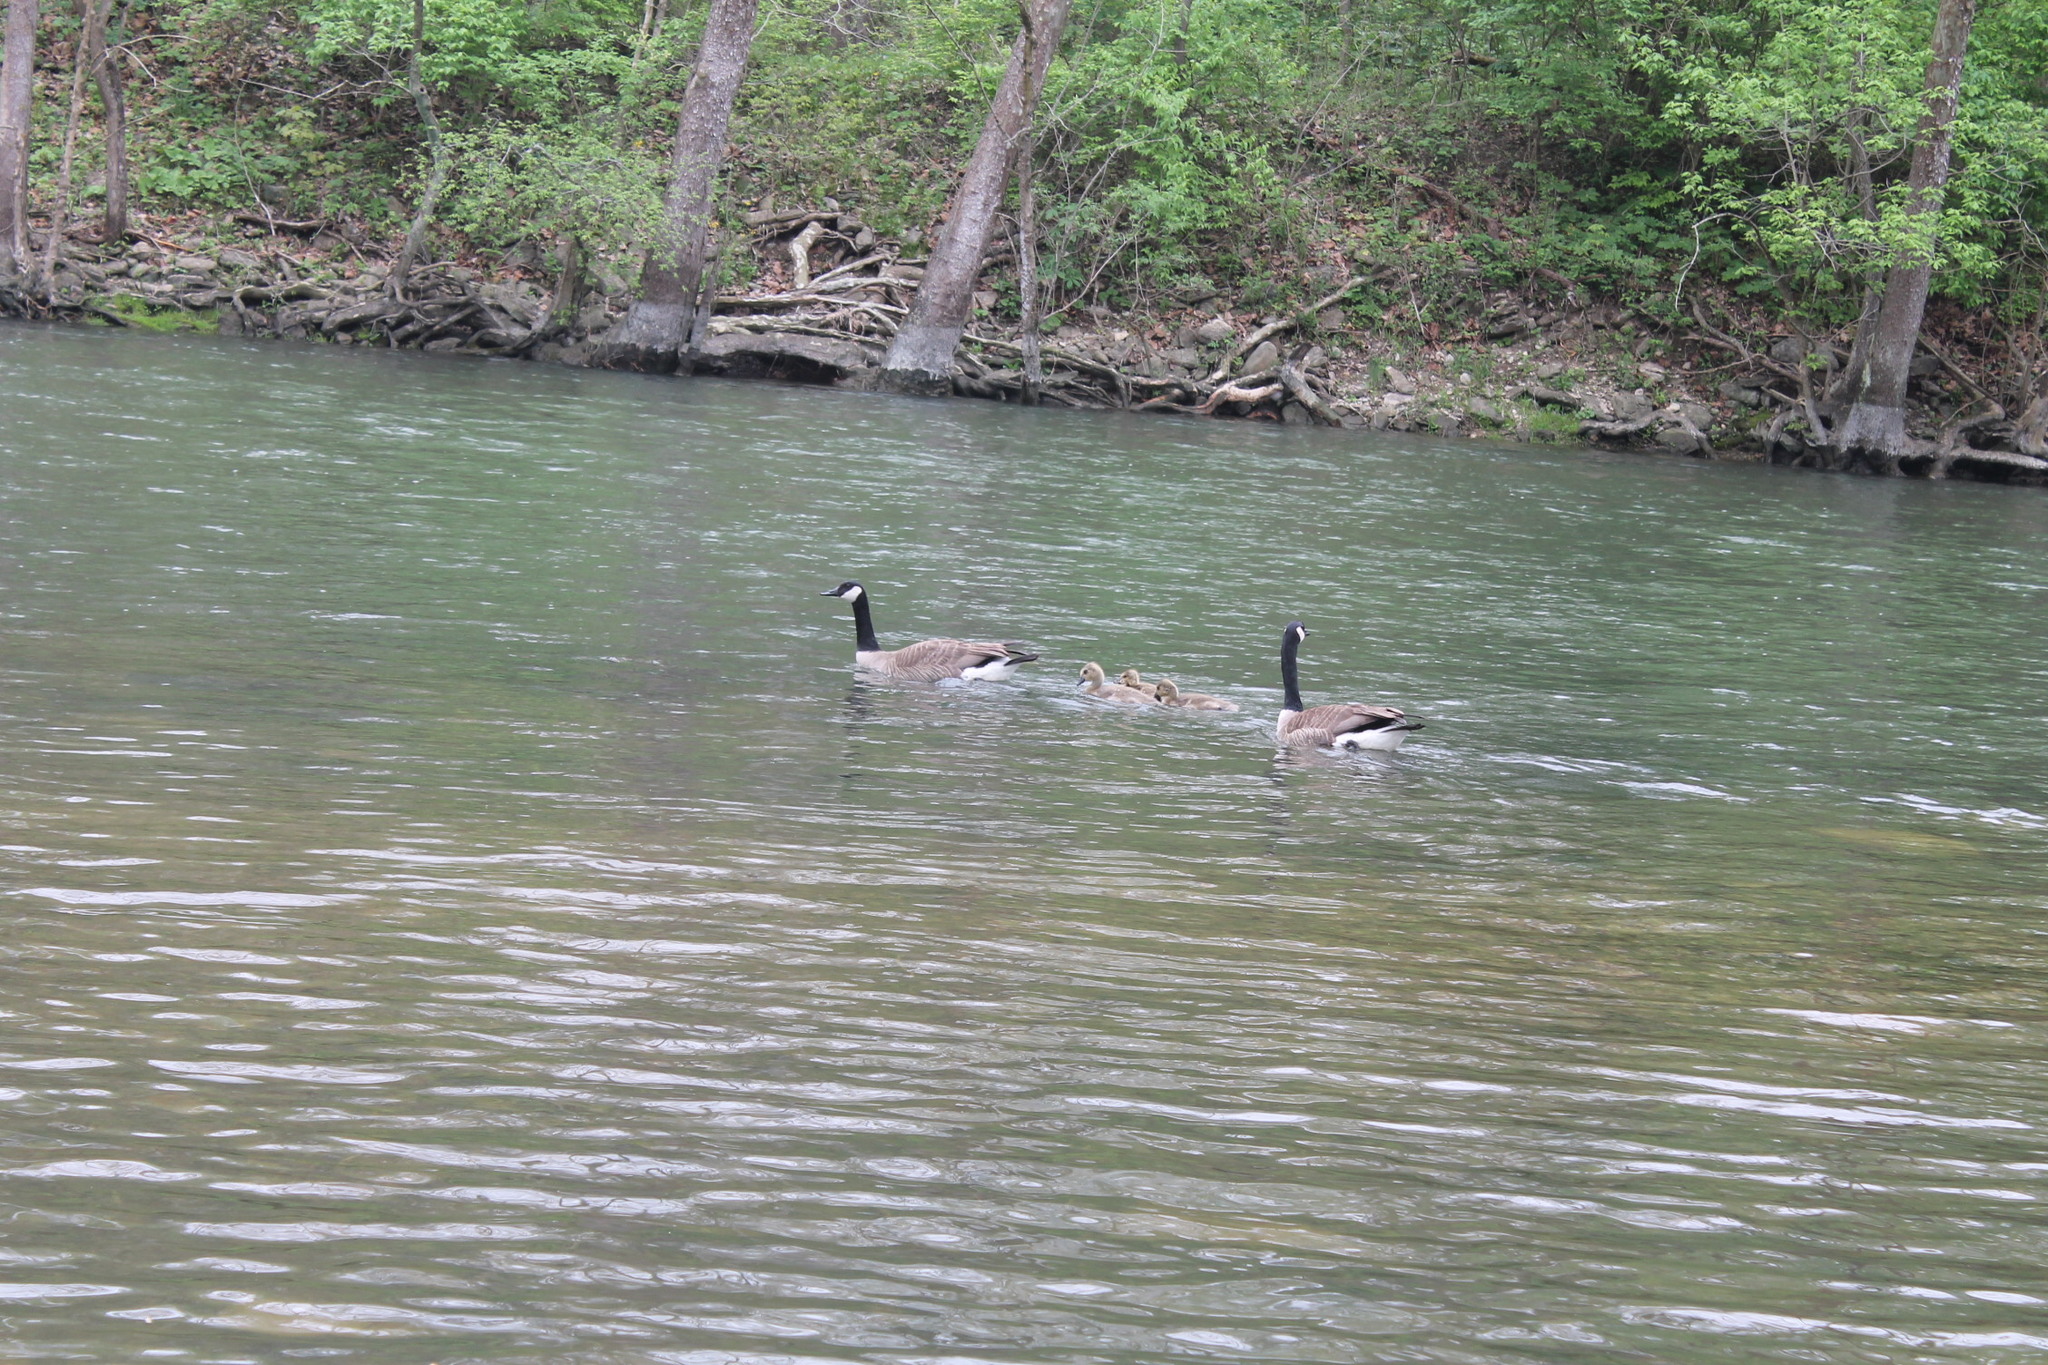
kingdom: Animalia
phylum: Chordata
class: Aves
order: Anseriformes
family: Anatidae
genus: Branta
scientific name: Branta canadensis
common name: Canada goose
